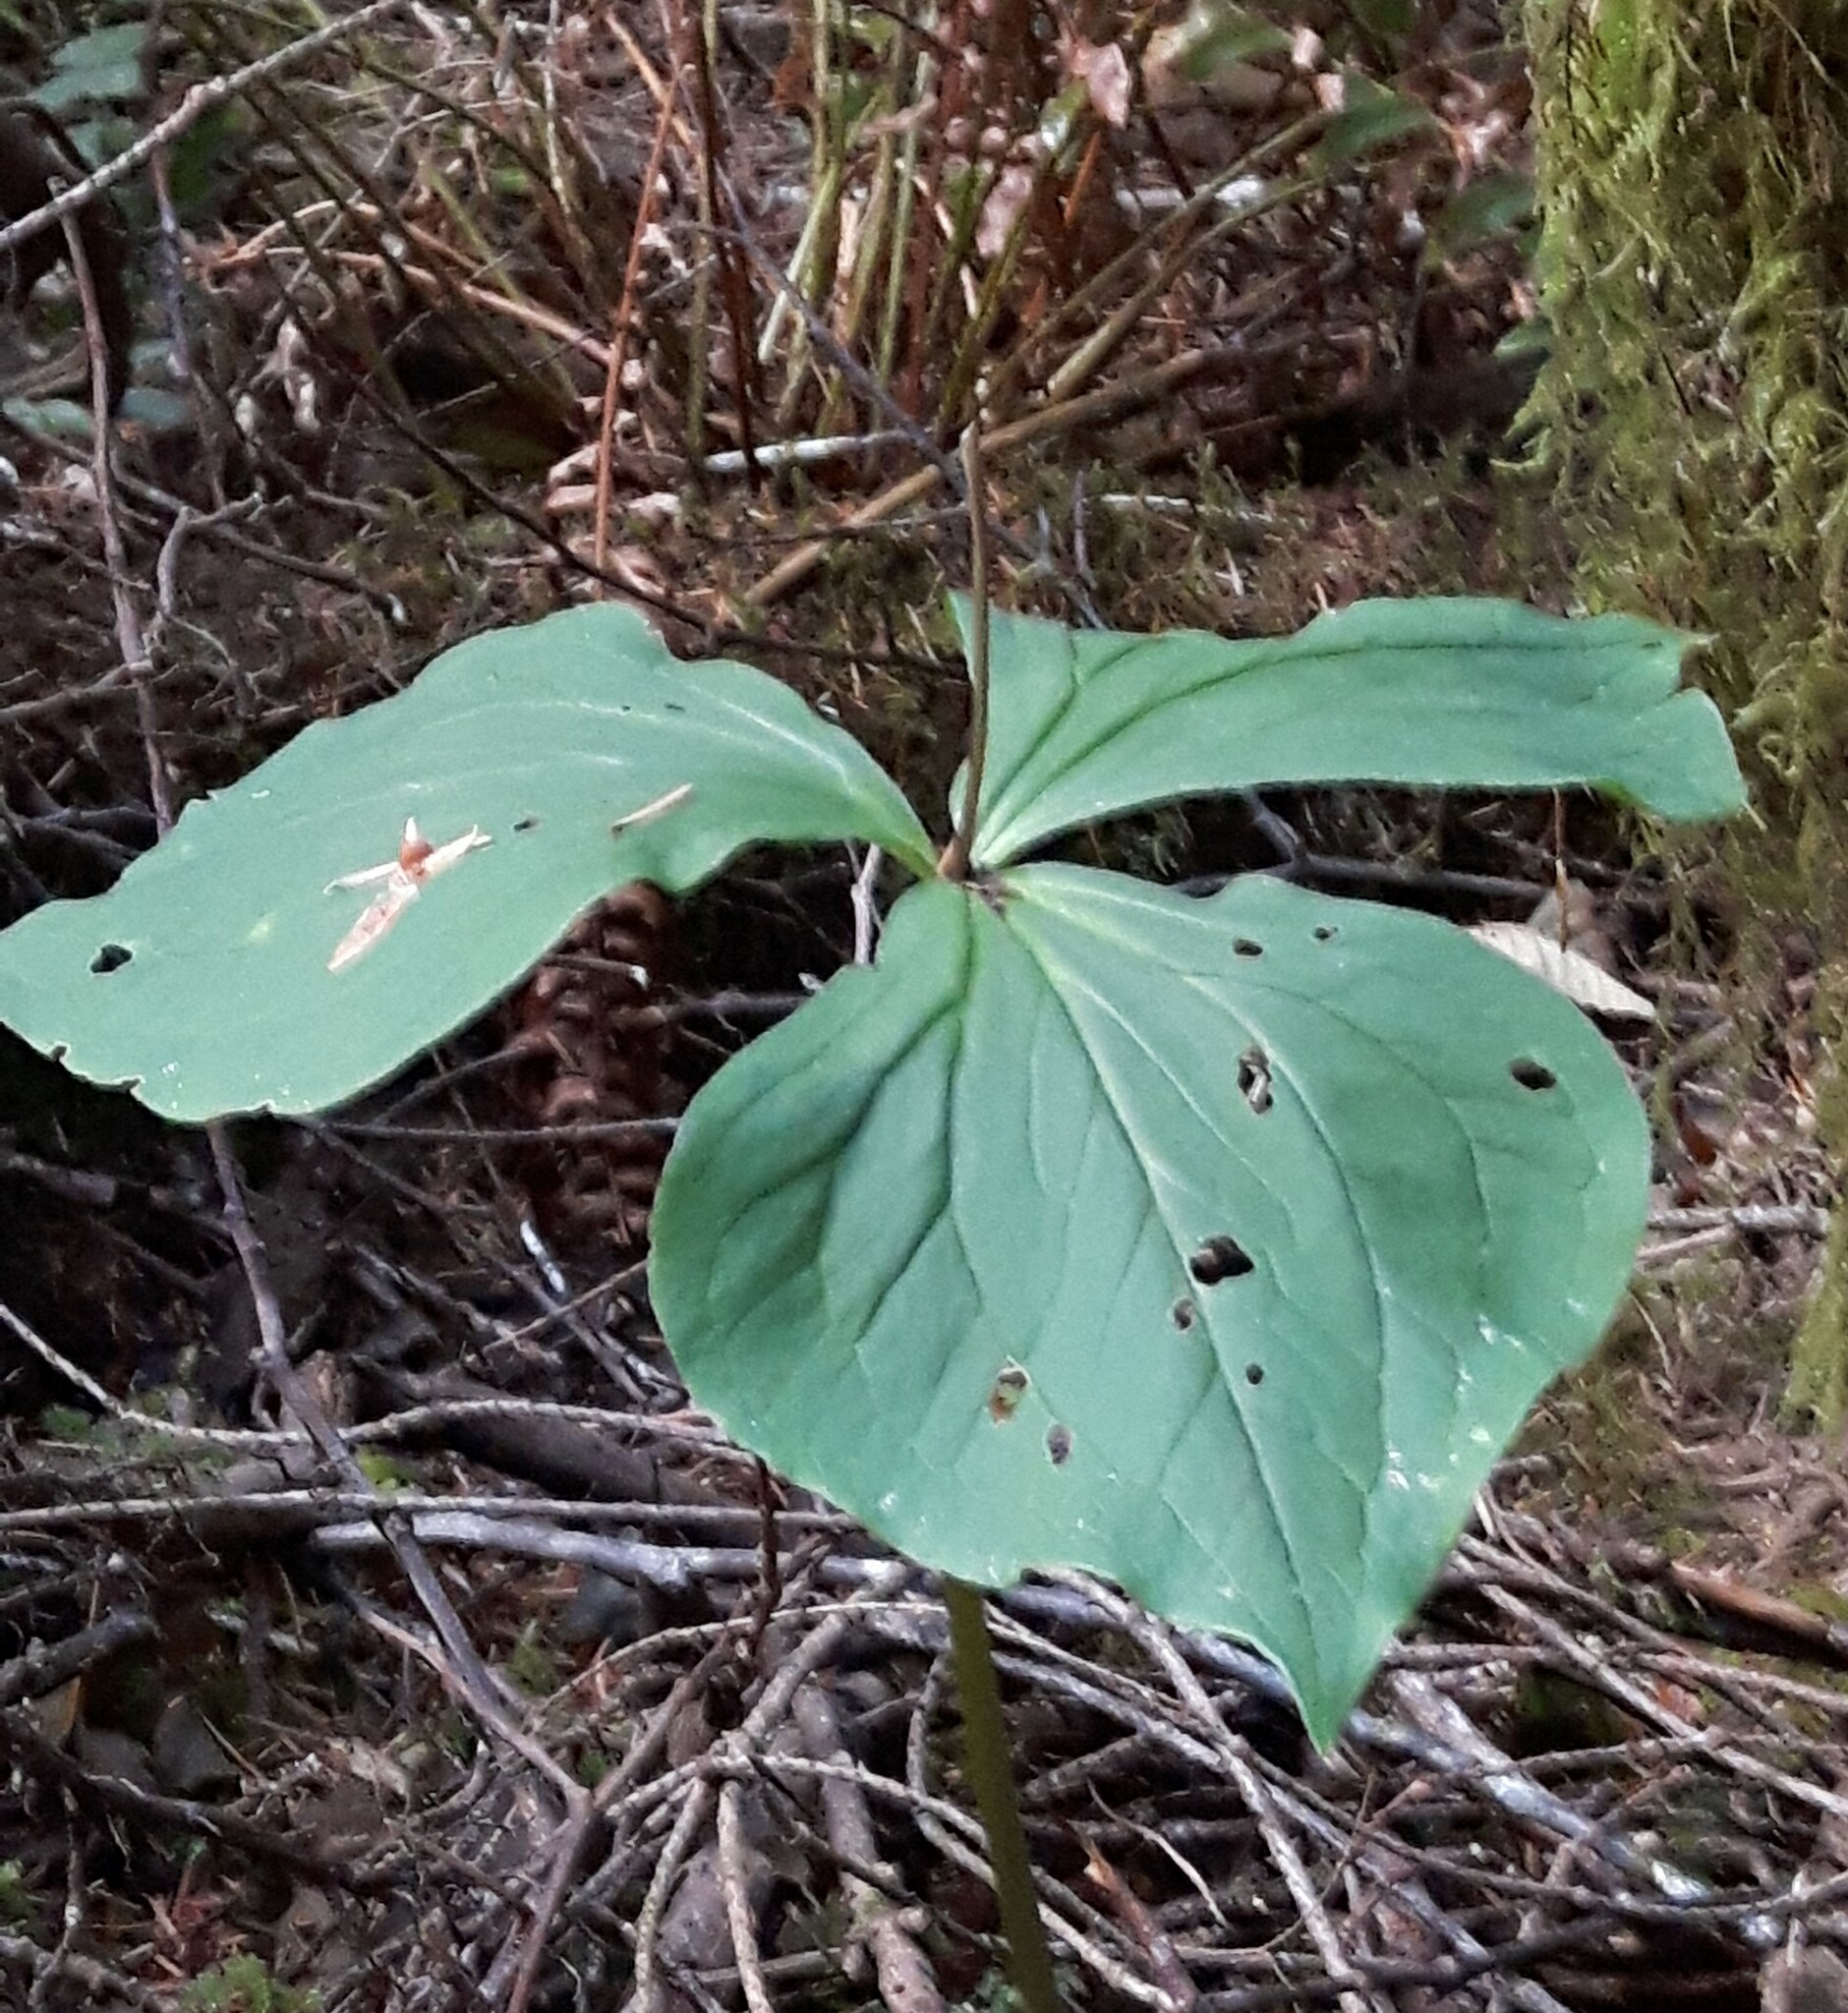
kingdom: Plantae
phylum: Tracheophyta
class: Liliopsida
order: Liliales
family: Melanthiaceae
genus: Trillium
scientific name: Trillium ovatum
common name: Pacific trillium
